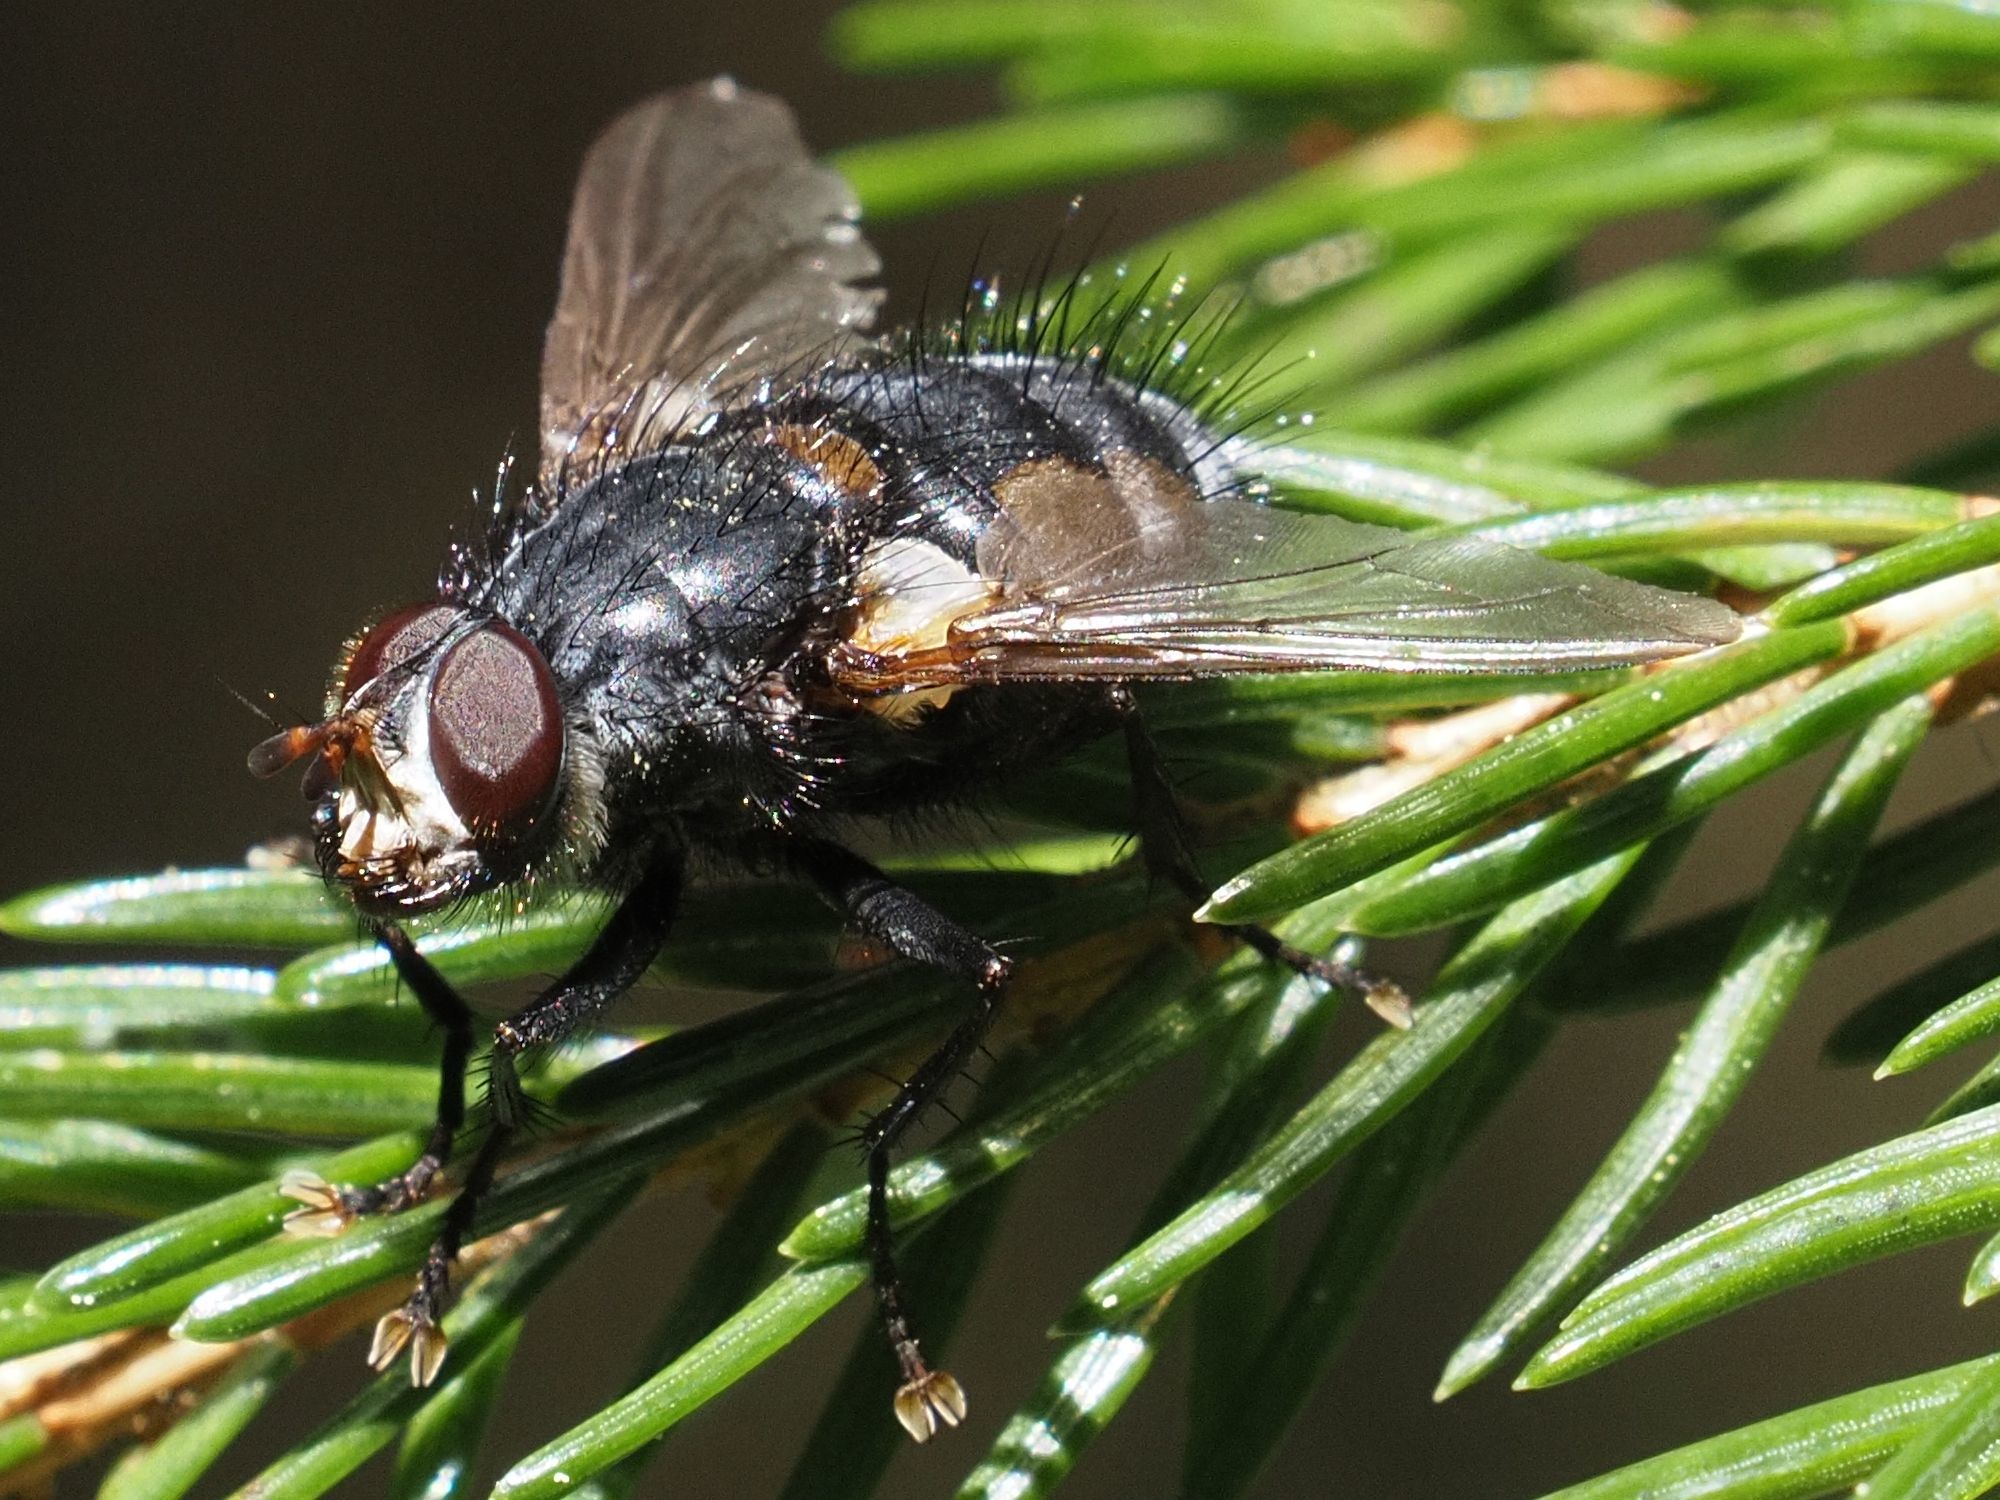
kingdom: Animalia
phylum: Arthropoda
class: Insecta
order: Diptera
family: Tachinidae
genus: Panzeria
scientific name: Panzeria rudis
